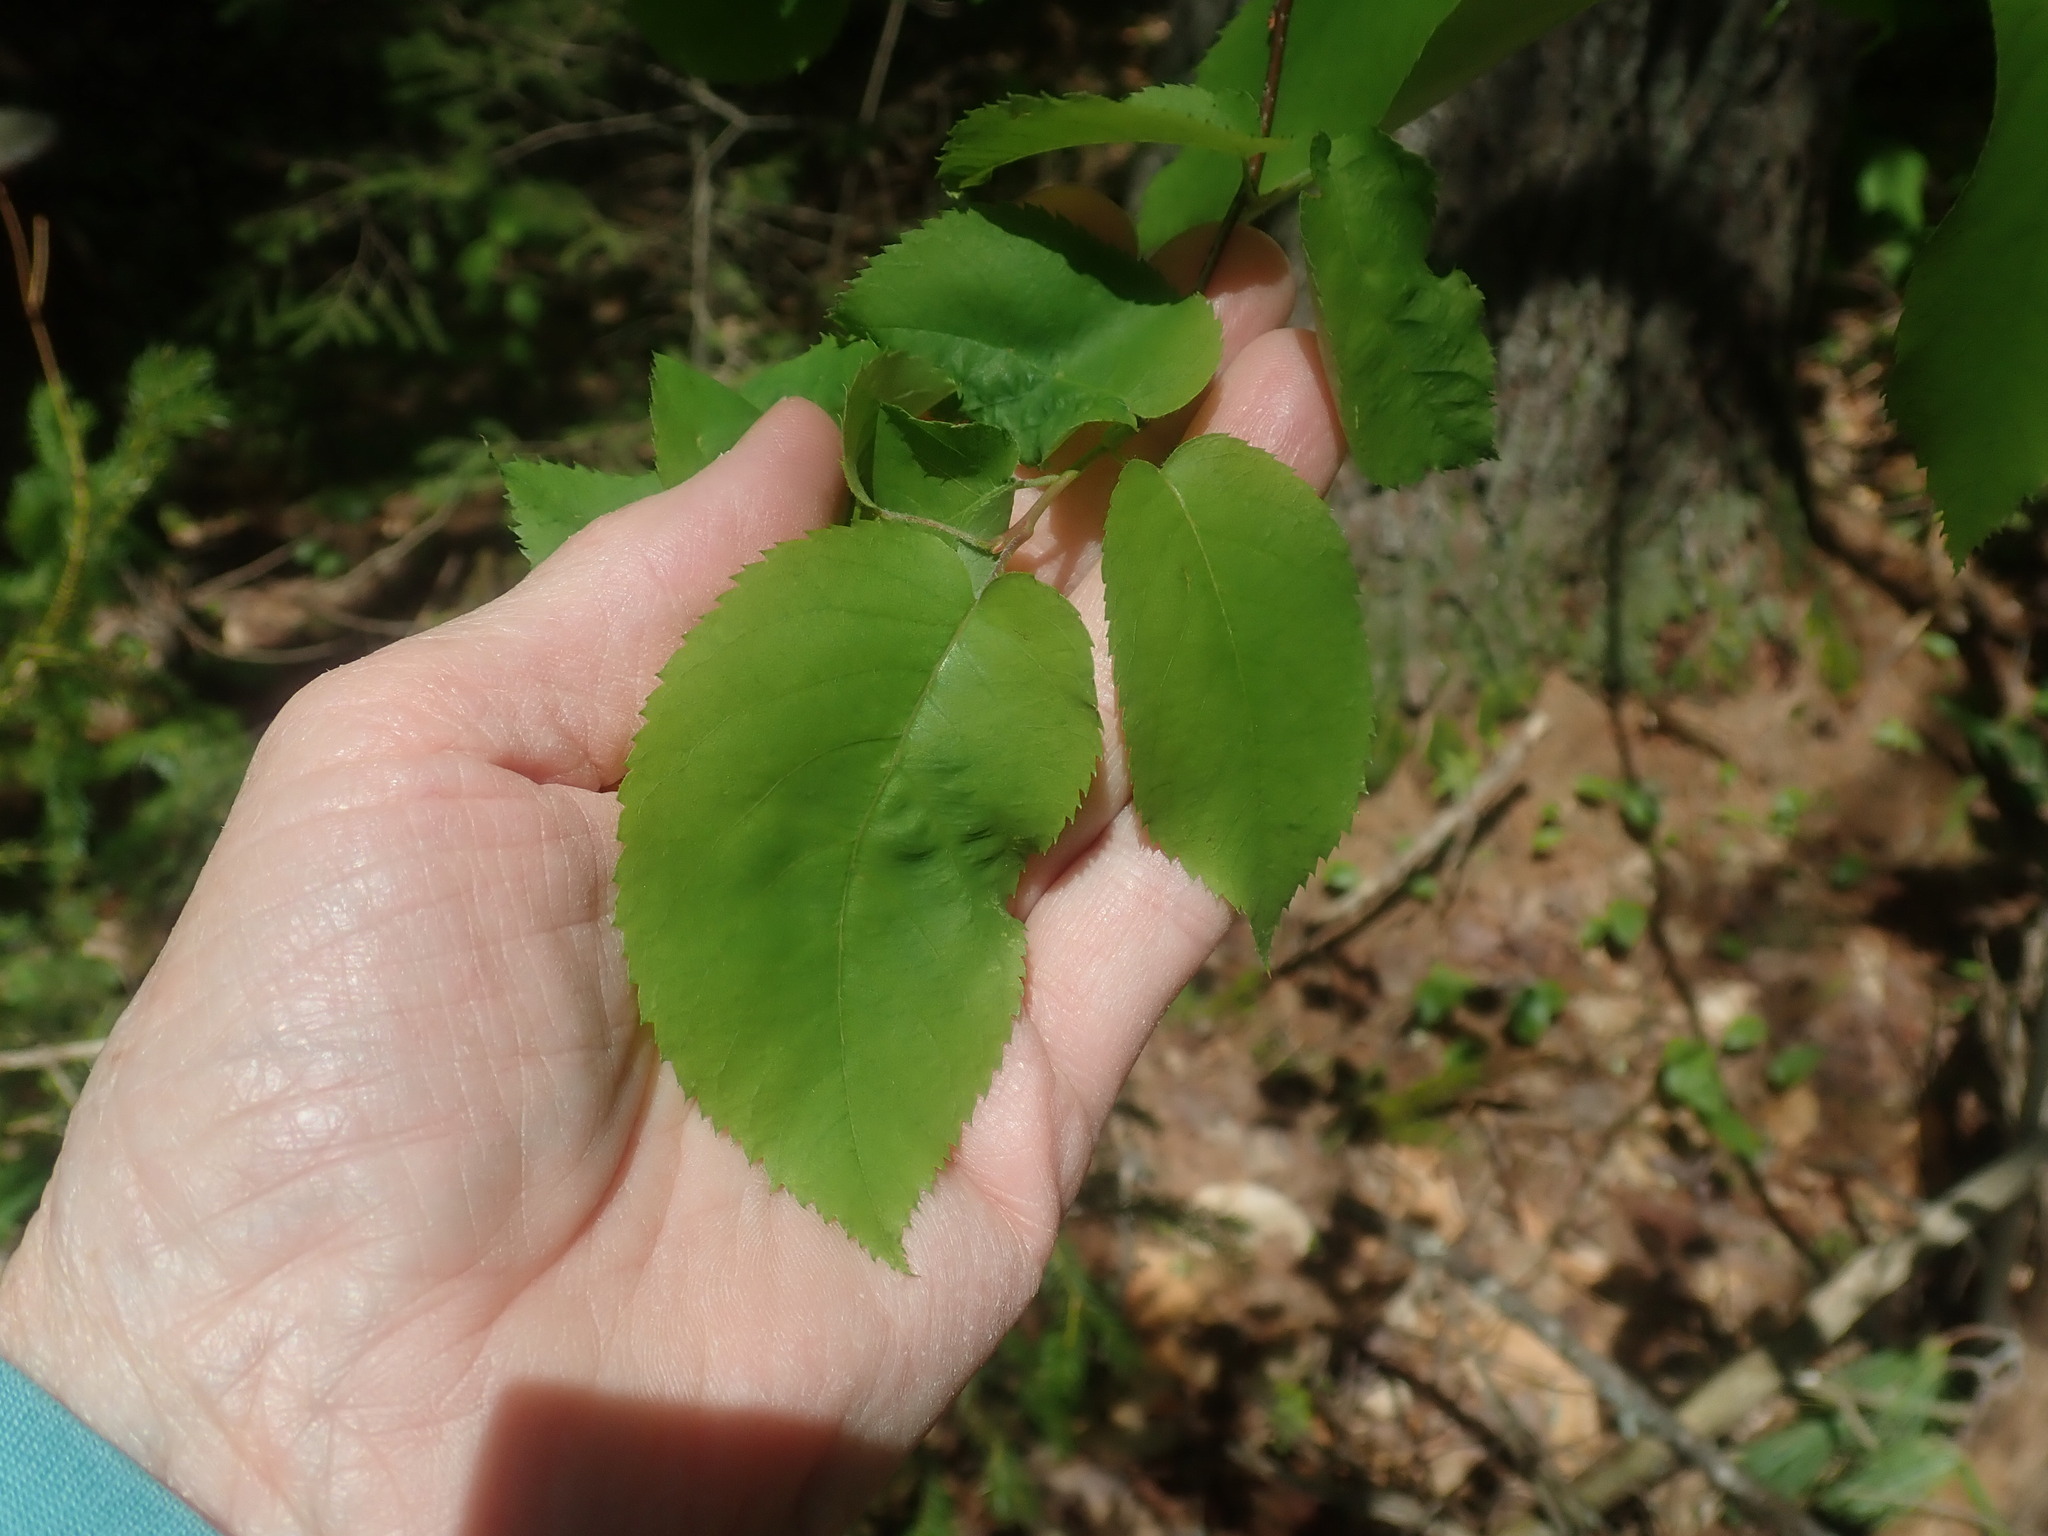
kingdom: Plantae
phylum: Tracheophyta
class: Magnoliopsida
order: Rosales
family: Rosaceae
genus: Amelanchier
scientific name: Amelanchier
